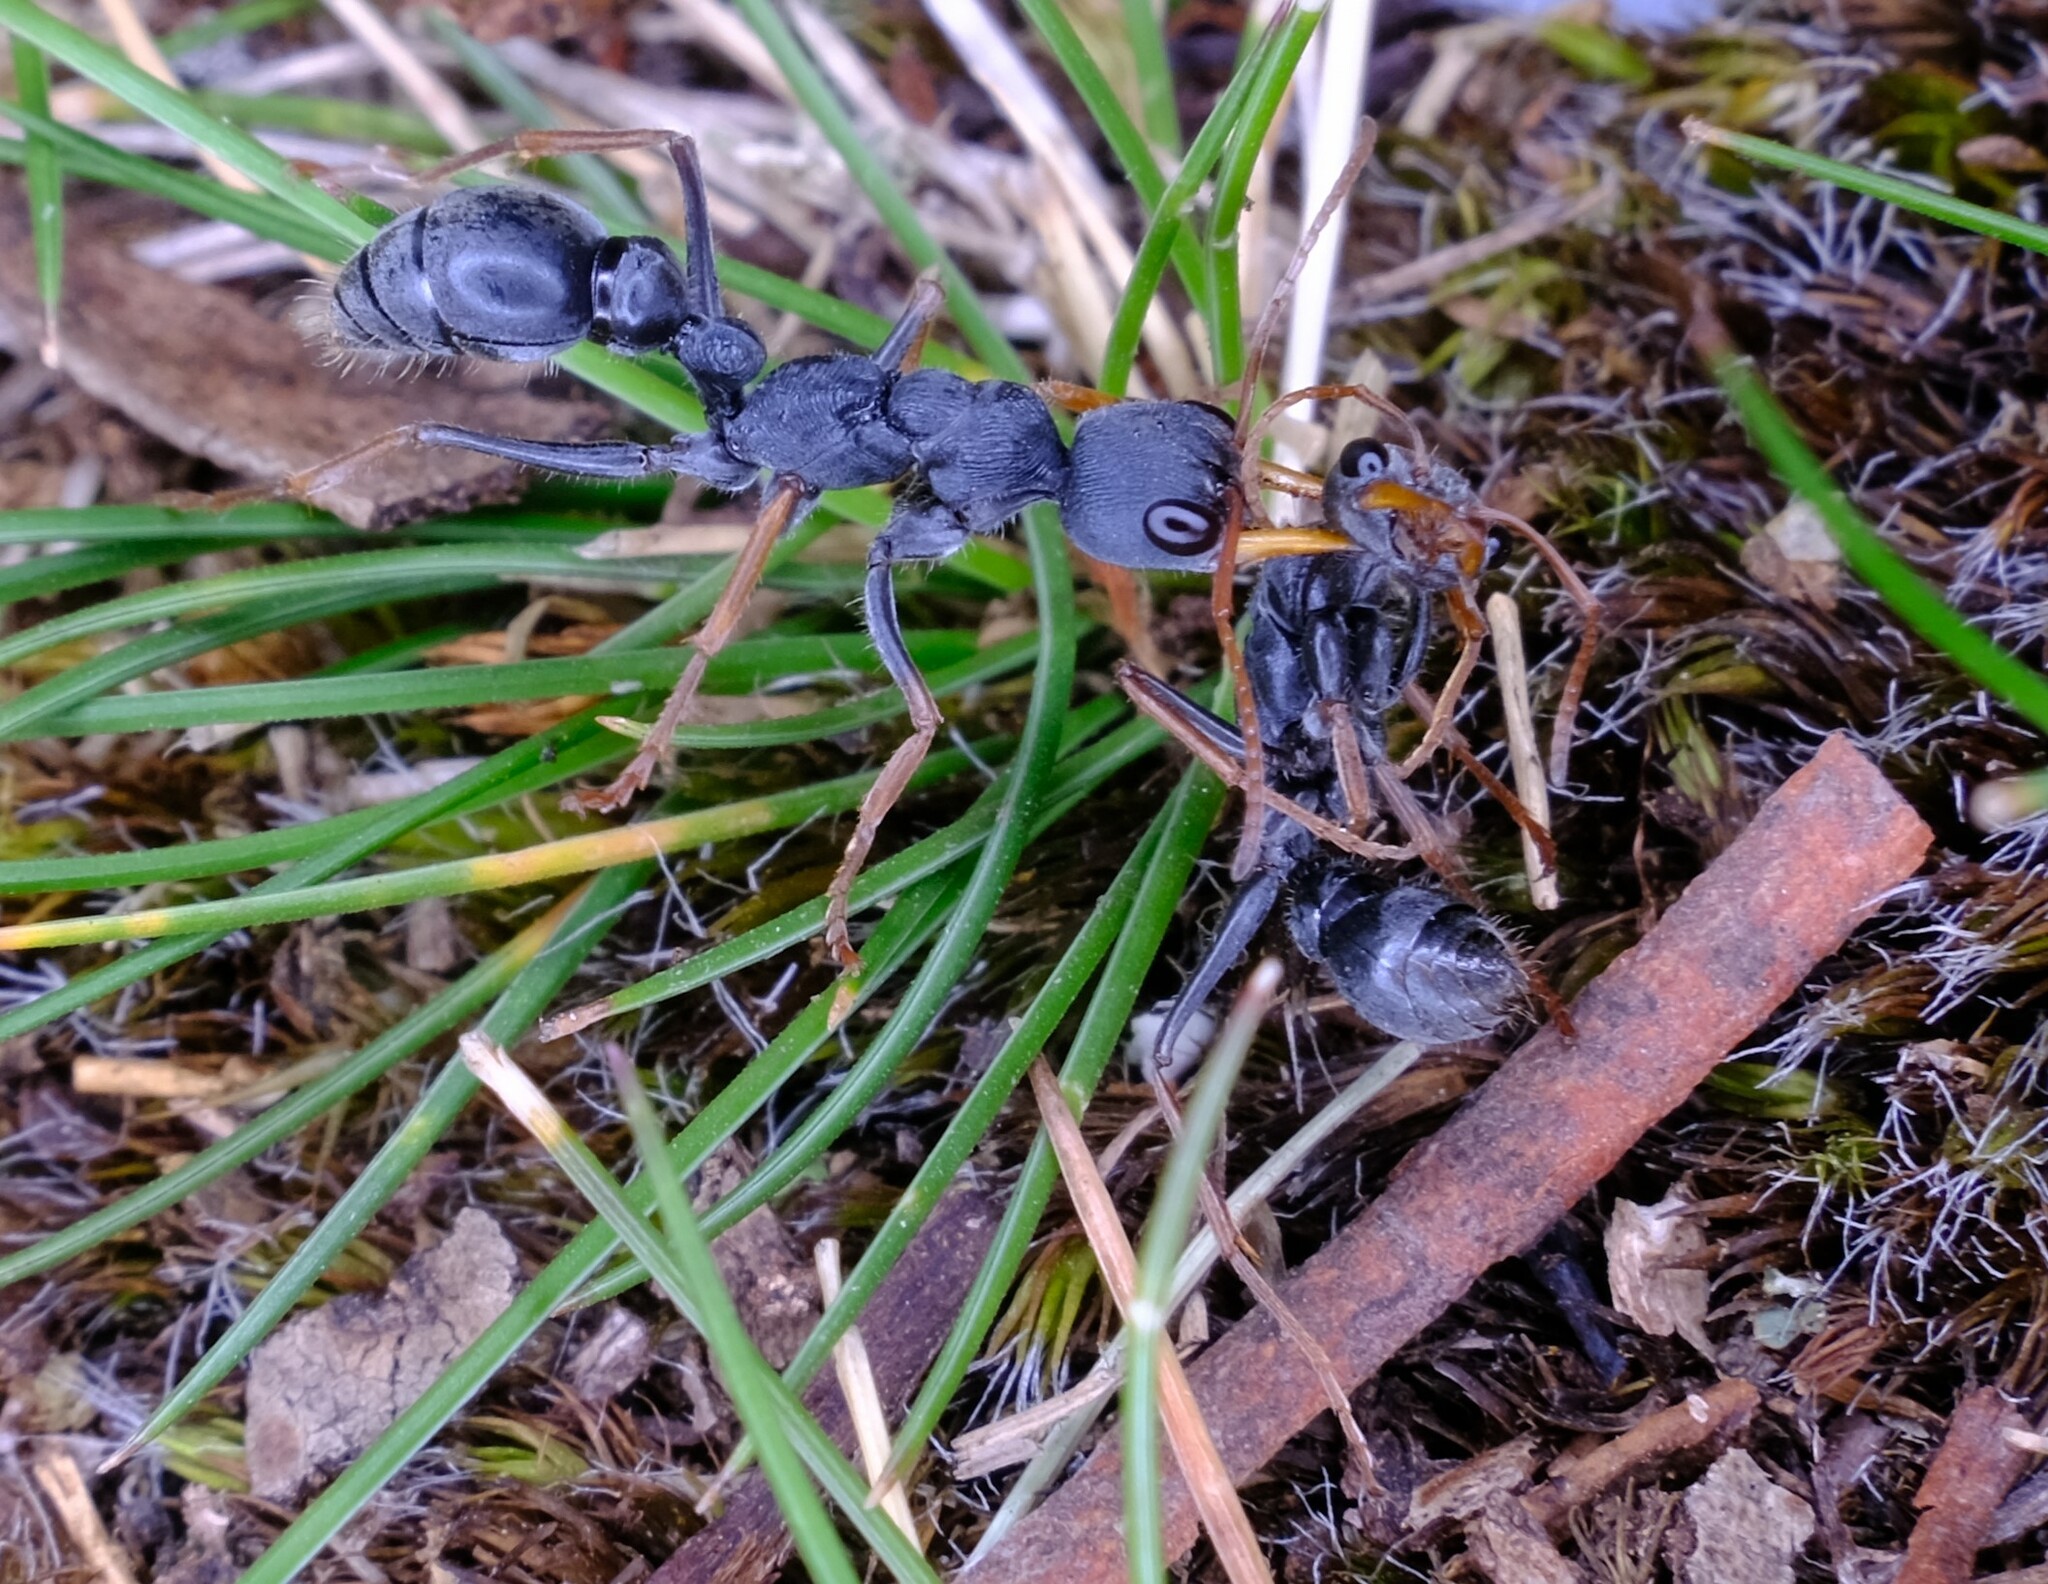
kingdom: Animalia
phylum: Arthropoda
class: Insecta
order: Hymenoptera
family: Formicidae
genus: Myrmecia
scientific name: Myrmecia pilosula
